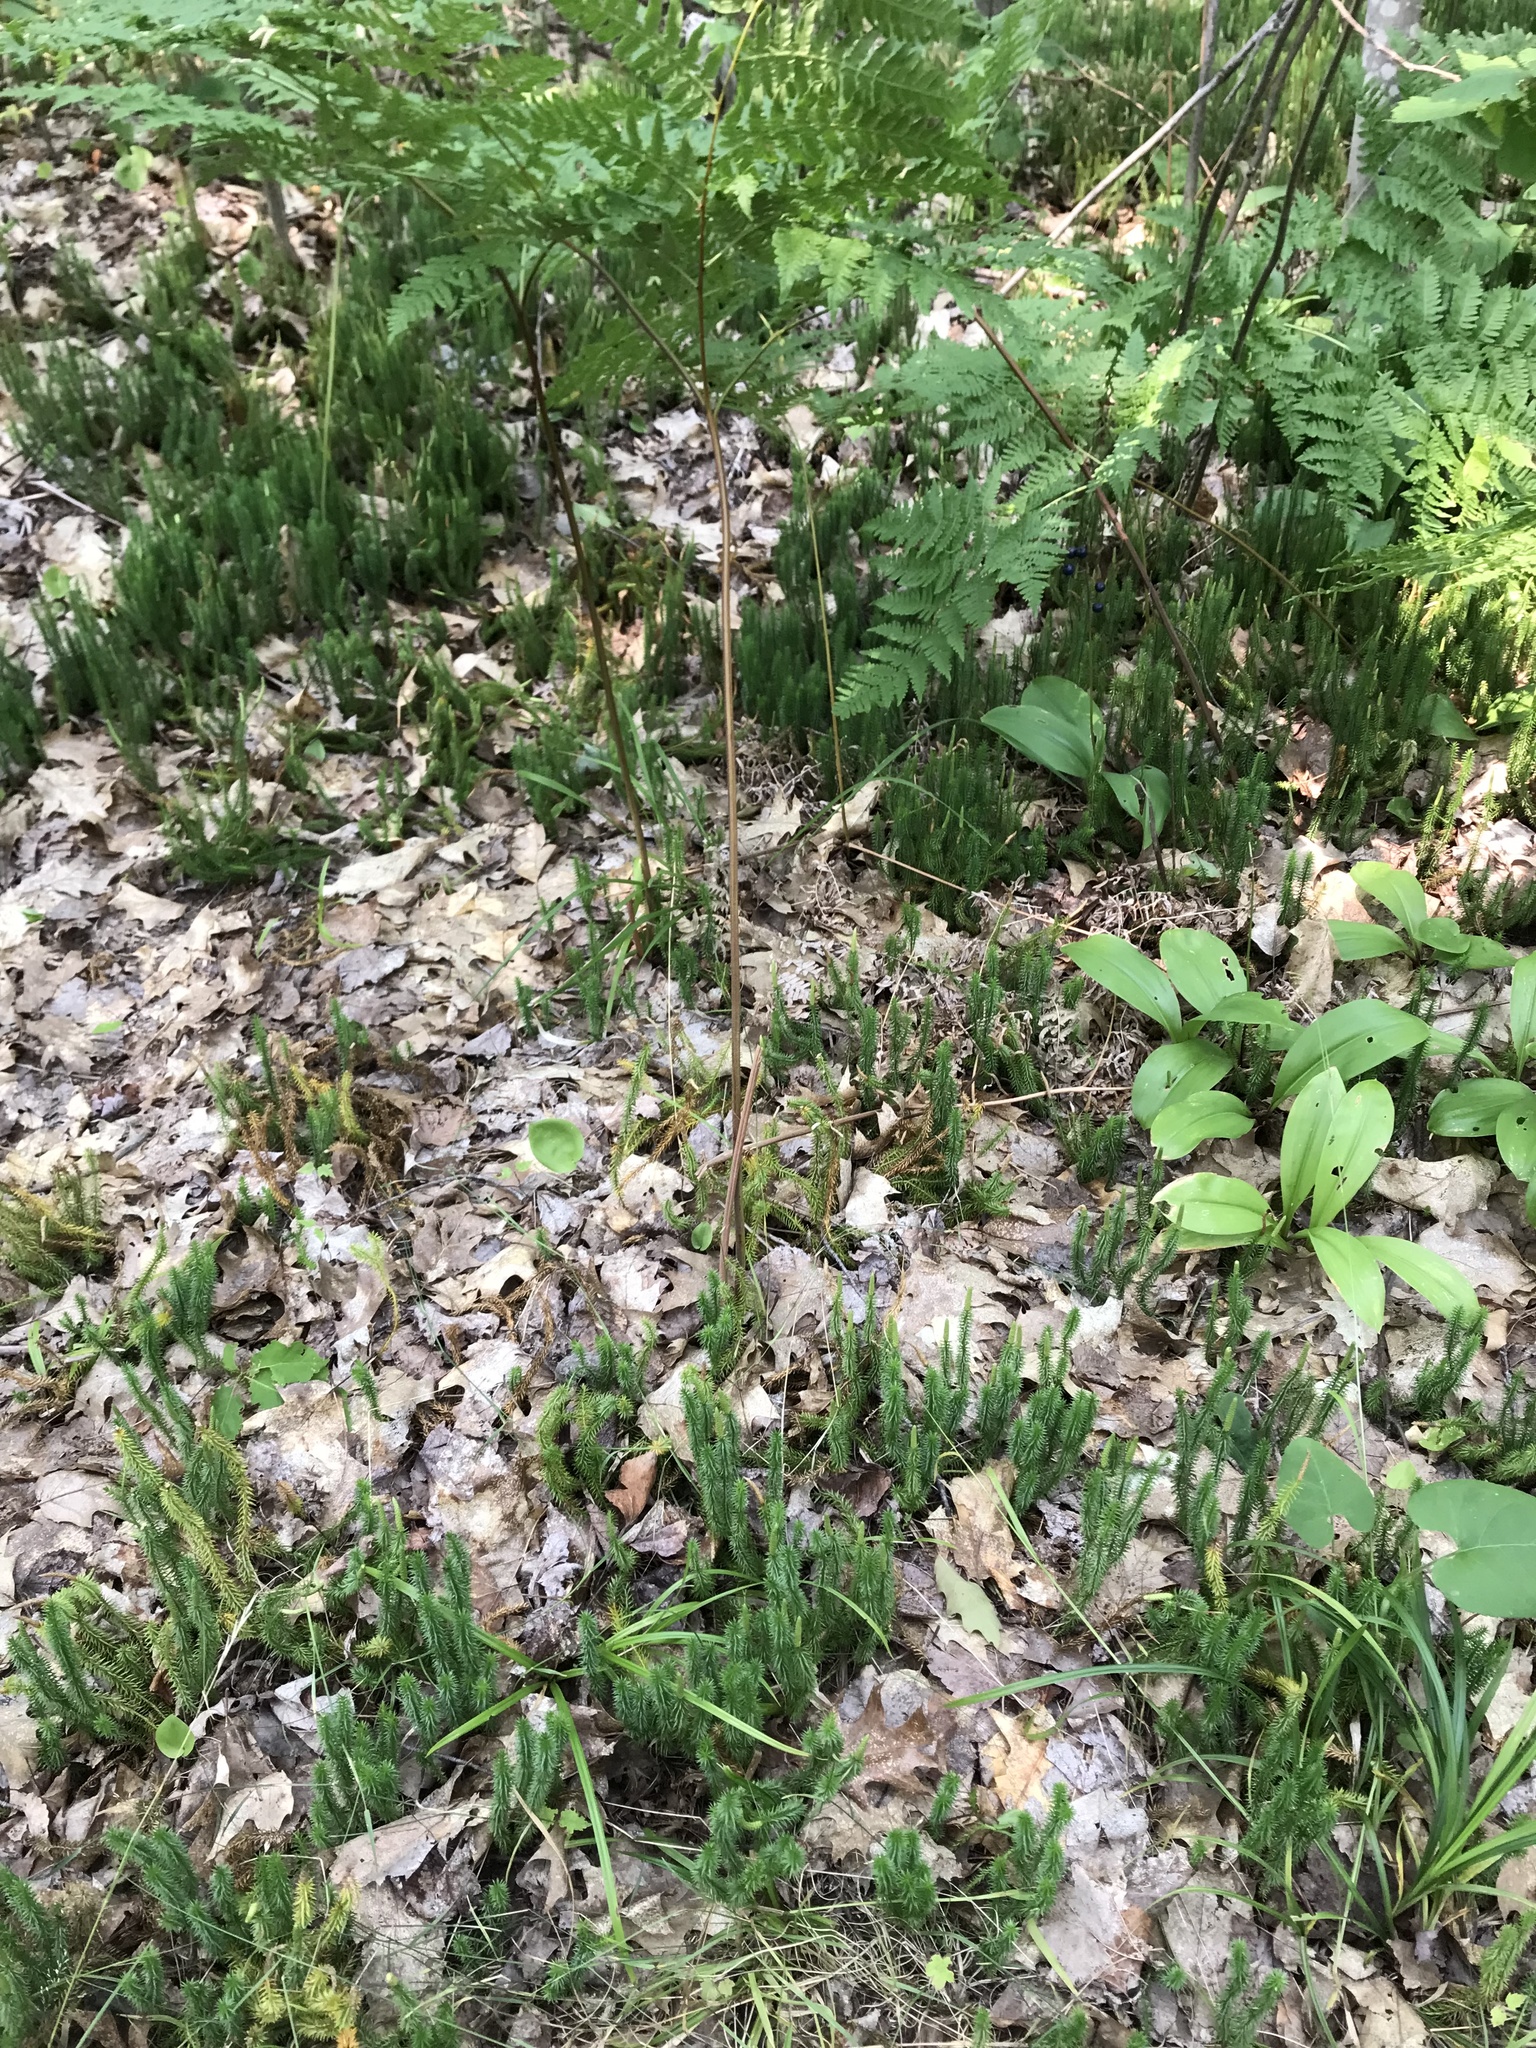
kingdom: Plantae
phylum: Tracheophyta
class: Lycopodiopsida
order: Lycopodiales
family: Lycopodiaceae
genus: Spinulum
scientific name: Spinulum annotinum
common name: Interrupted club-moss
